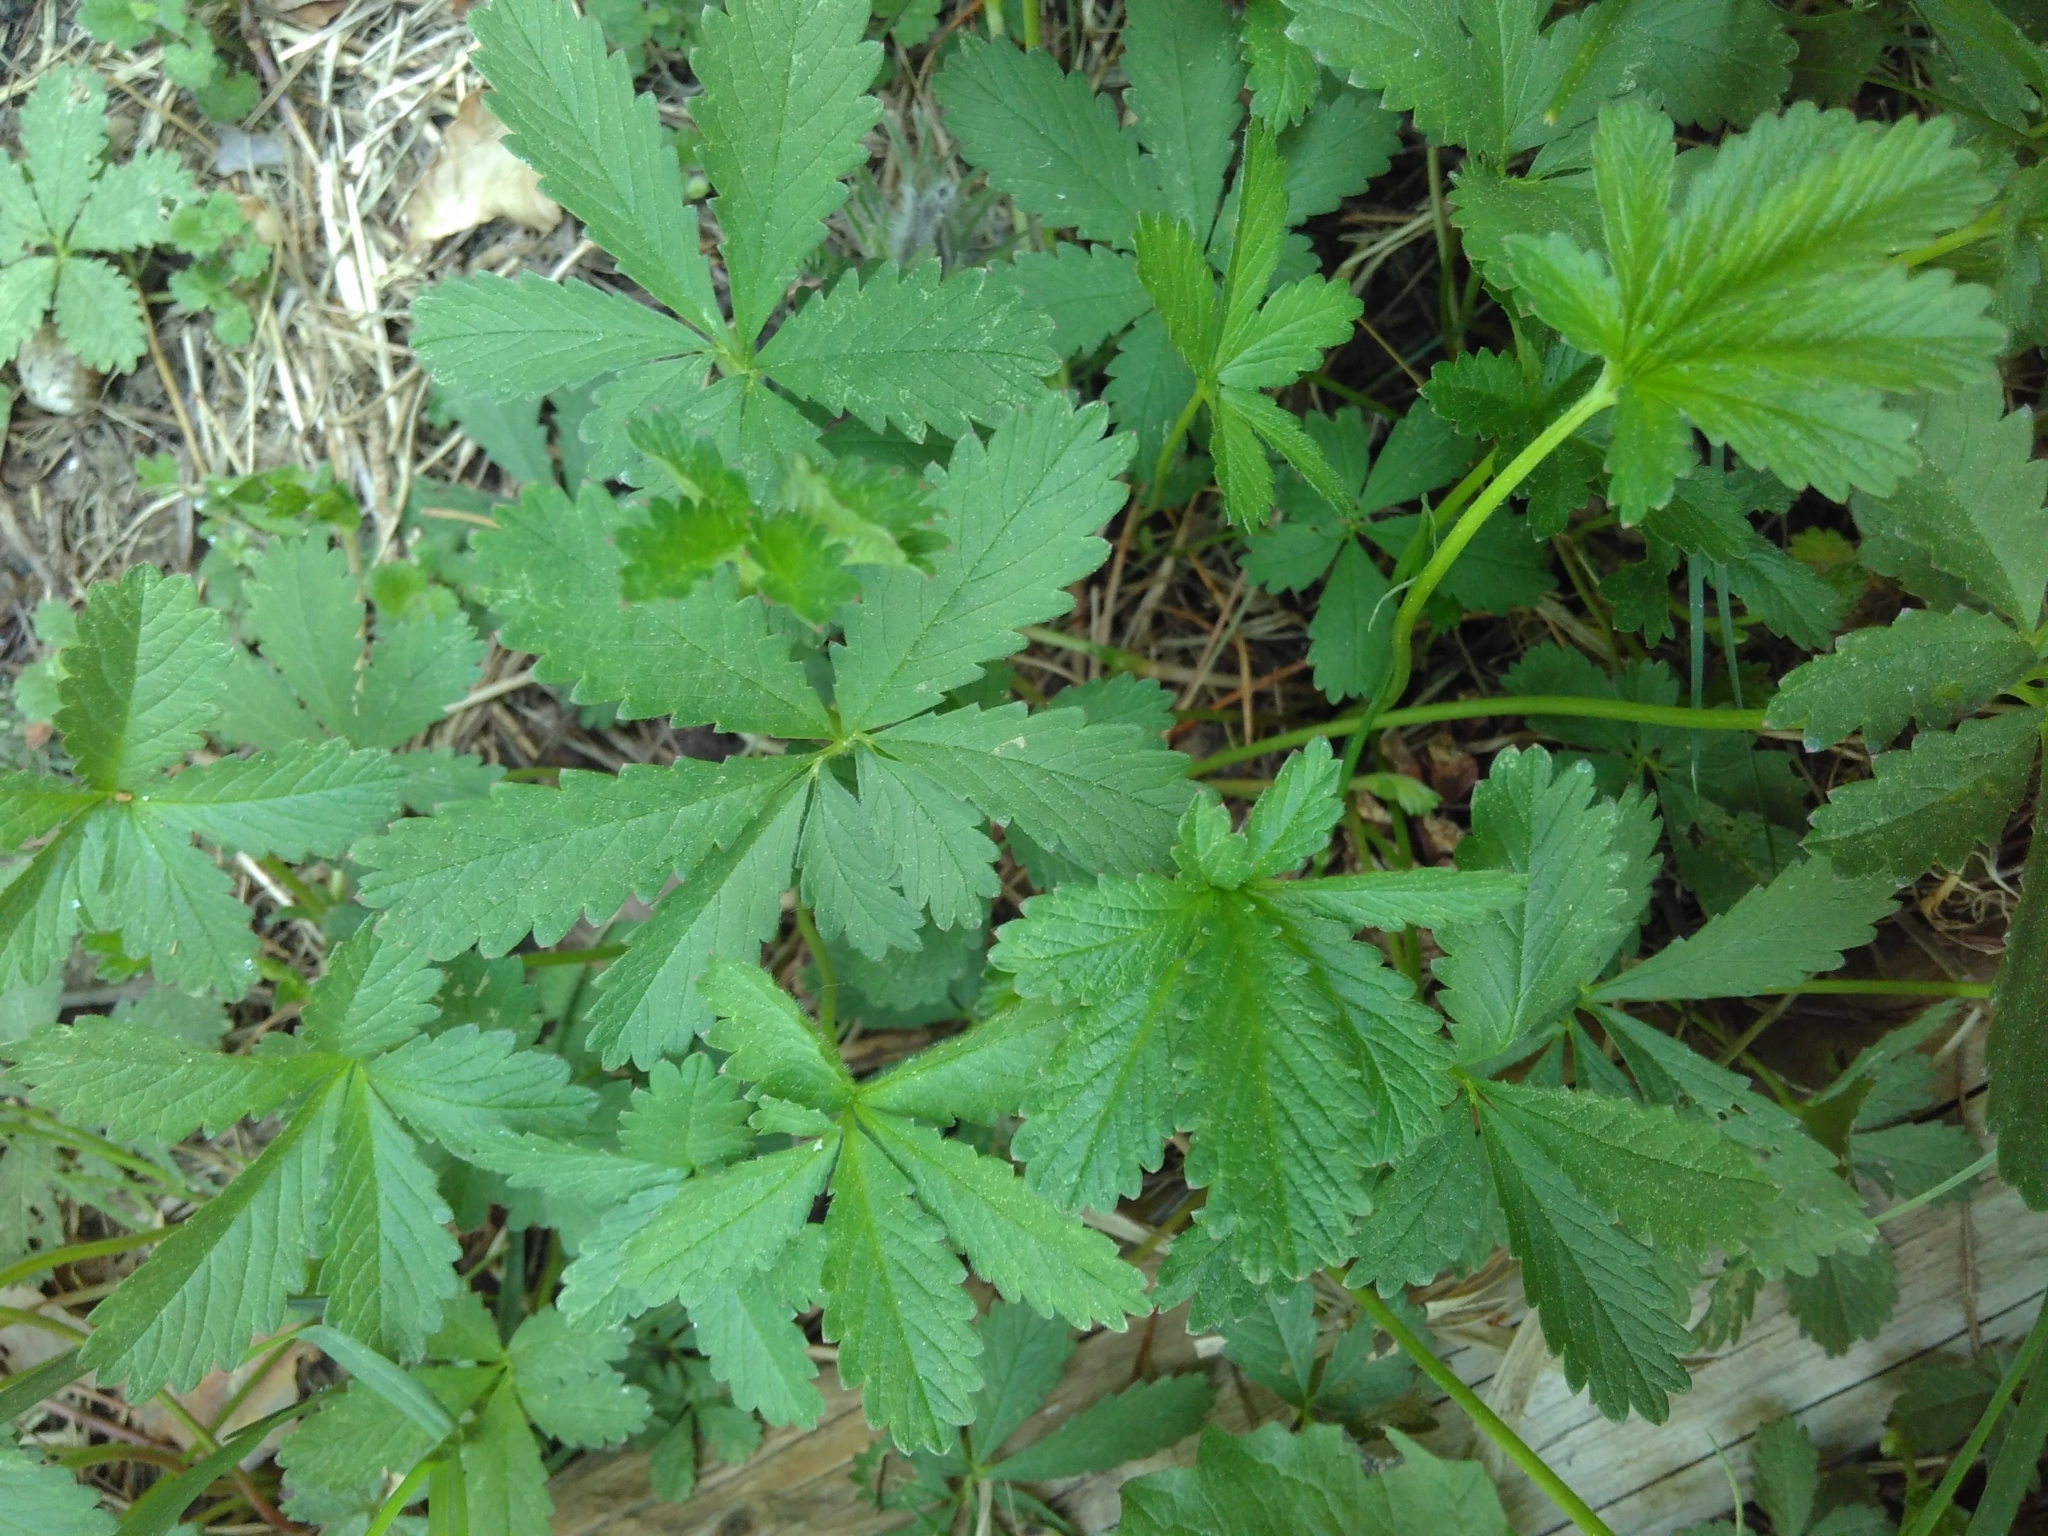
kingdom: Plantae
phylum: Tracheophyta
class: Magnoliopsida
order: Rosales
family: Rosaceae
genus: Potentilla
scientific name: Potentilla reptans
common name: Creeping cinquefoil
